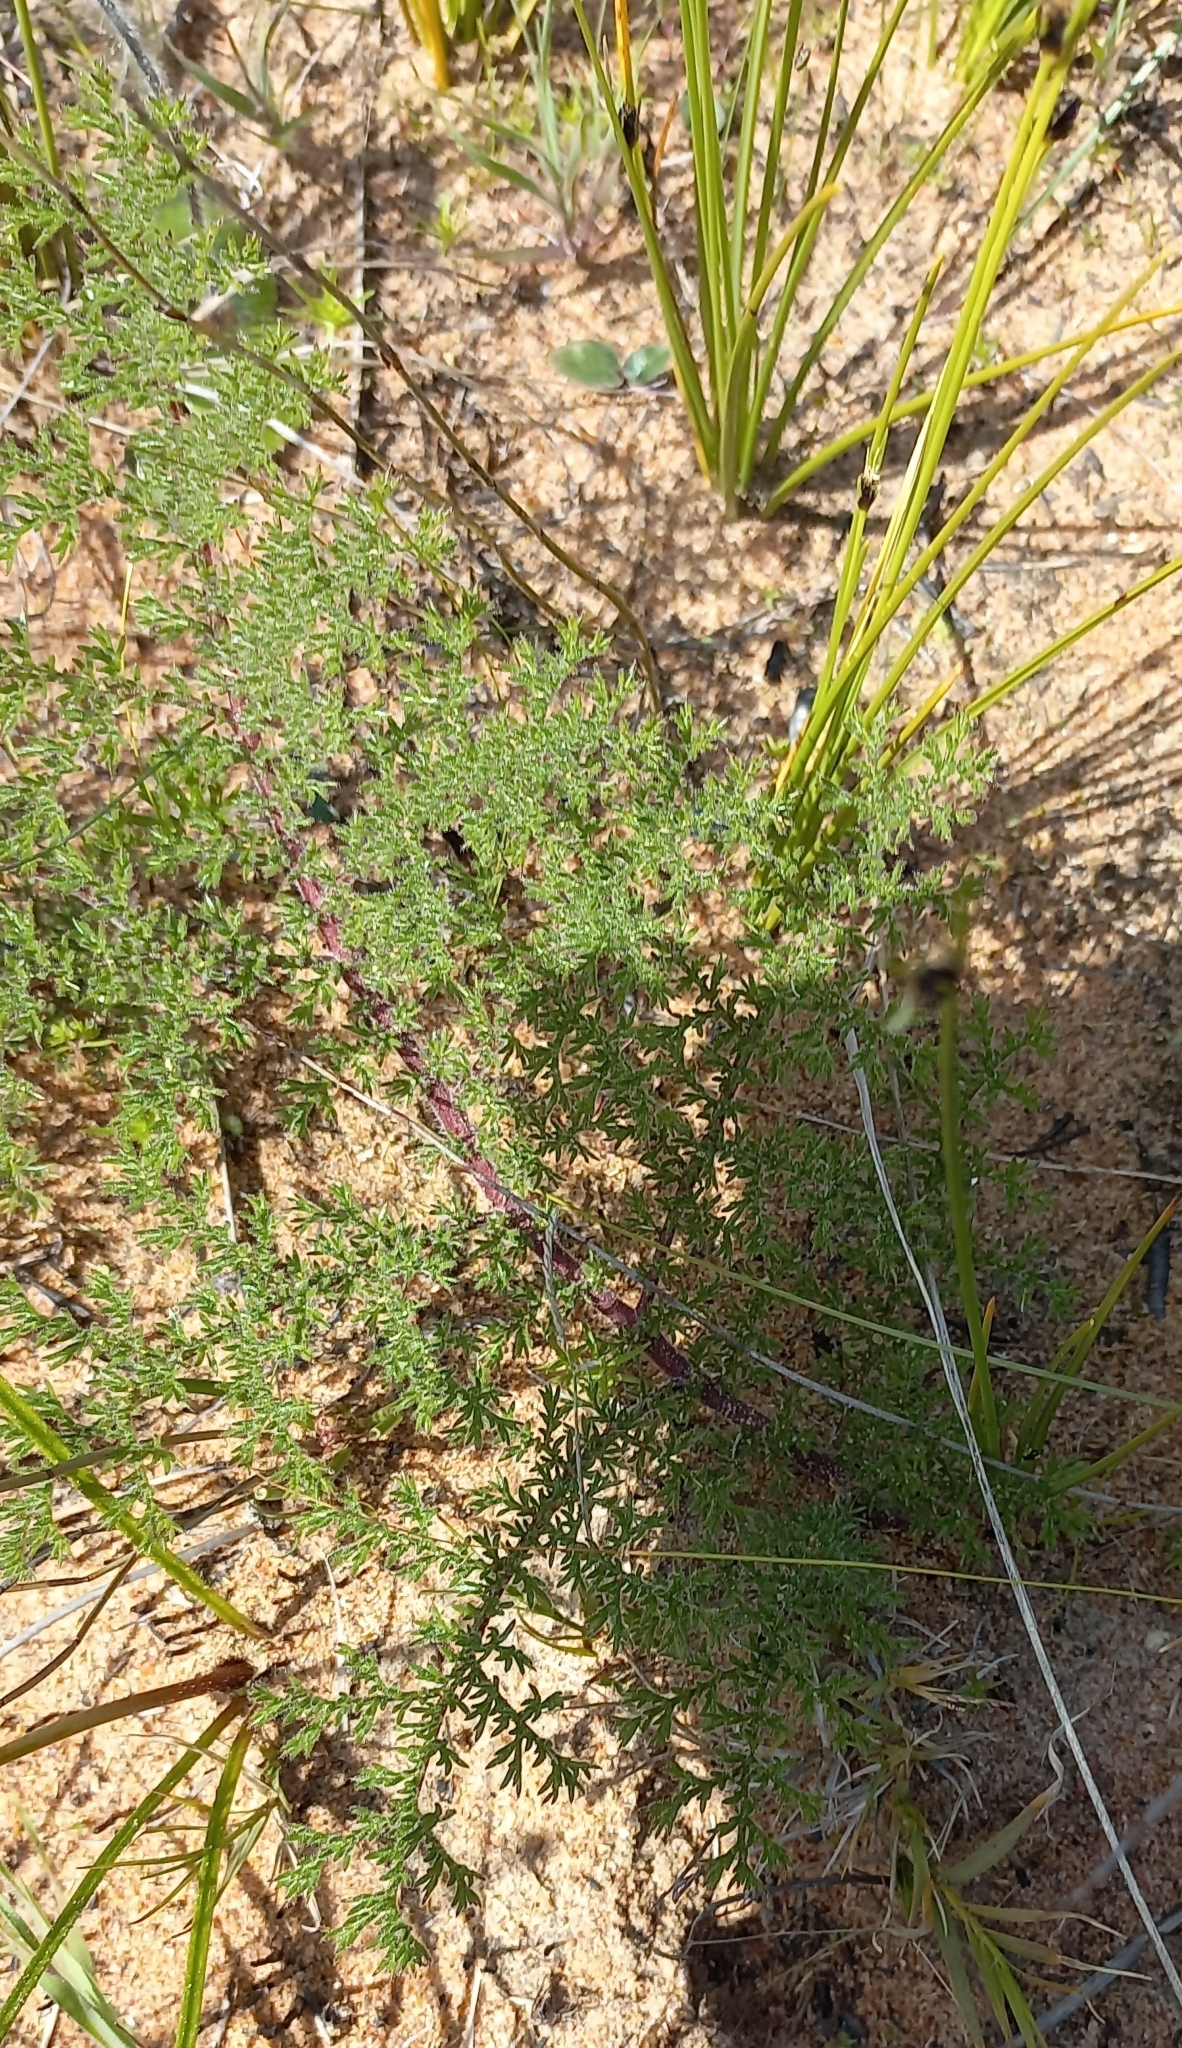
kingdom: Plantae
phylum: Tracheophyta
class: Magnoliopsida
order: Geraniales
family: Geraniaceae
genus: Pelargonium
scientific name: Pelargonium triste
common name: Night-scent pelargonium
